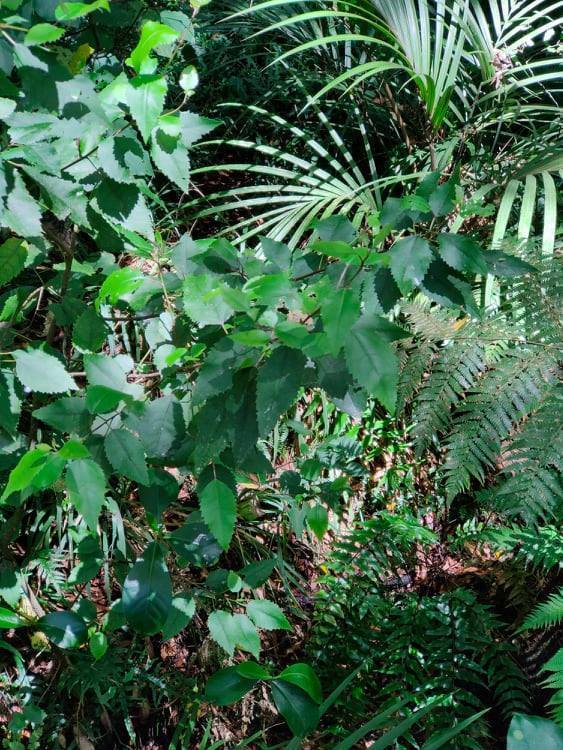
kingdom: Plantae
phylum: Tracheophyta
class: Magnoliopsida
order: Malvales
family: Malvaceae
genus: Hoheria
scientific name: Hoheria populnea
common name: Lacebark
